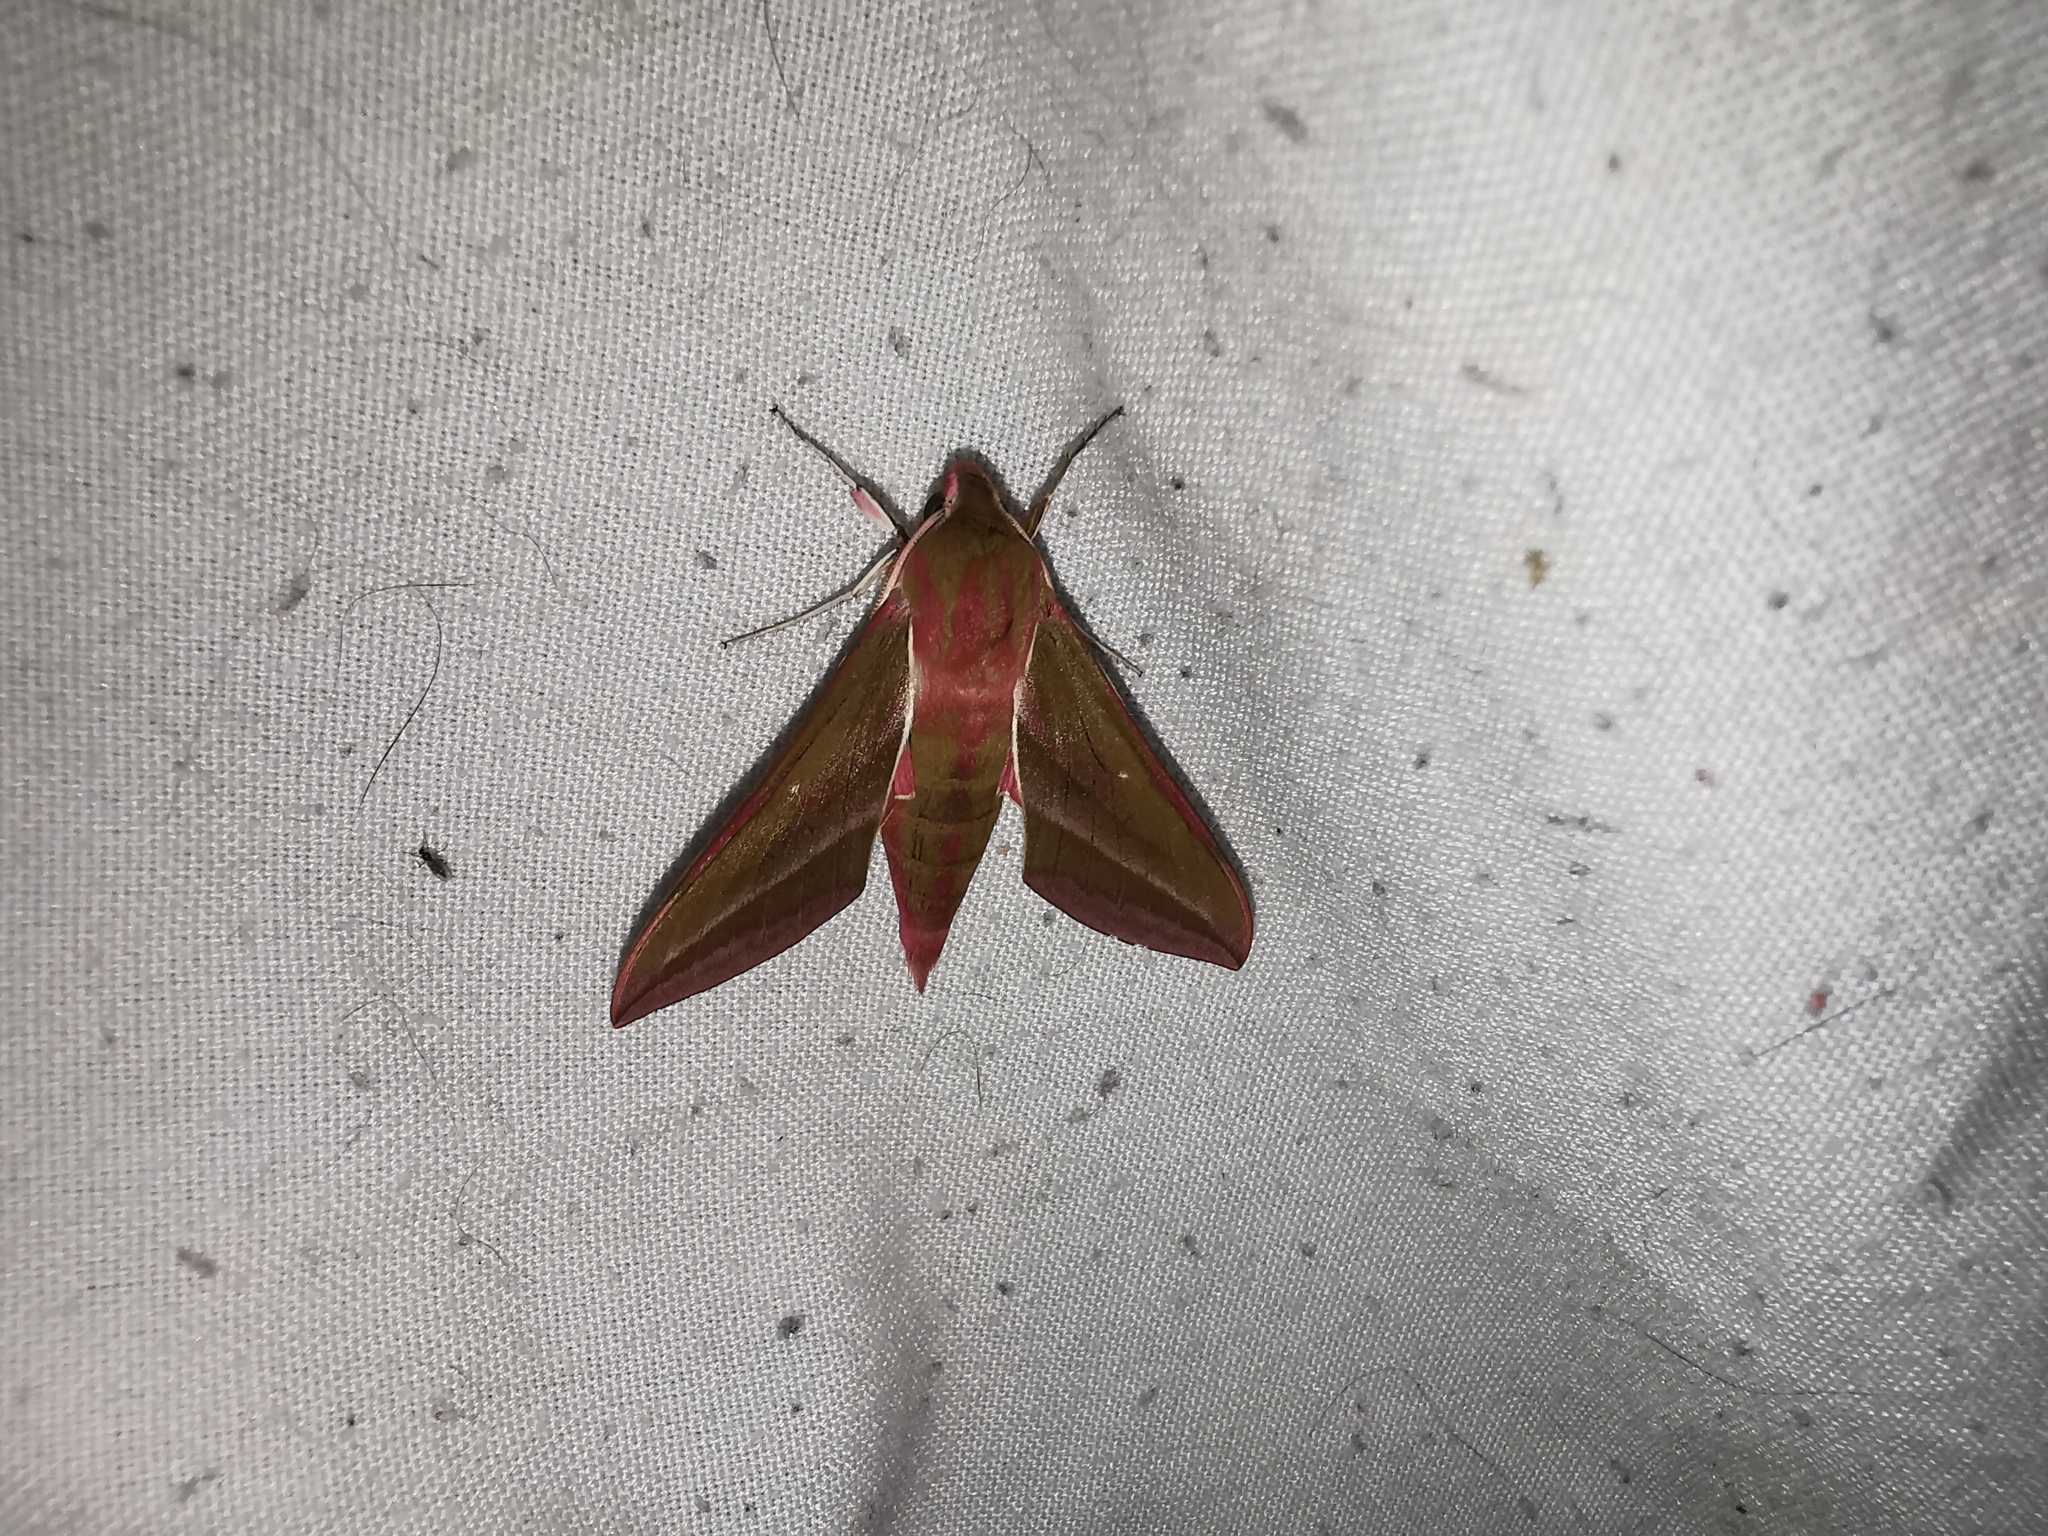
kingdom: Animalia
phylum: Arthropoda
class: Insecta
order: Lepidoptera
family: Sphingidae
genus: Deilephila
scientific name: Deilephila elpenor
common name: Elephant hawk-moth
